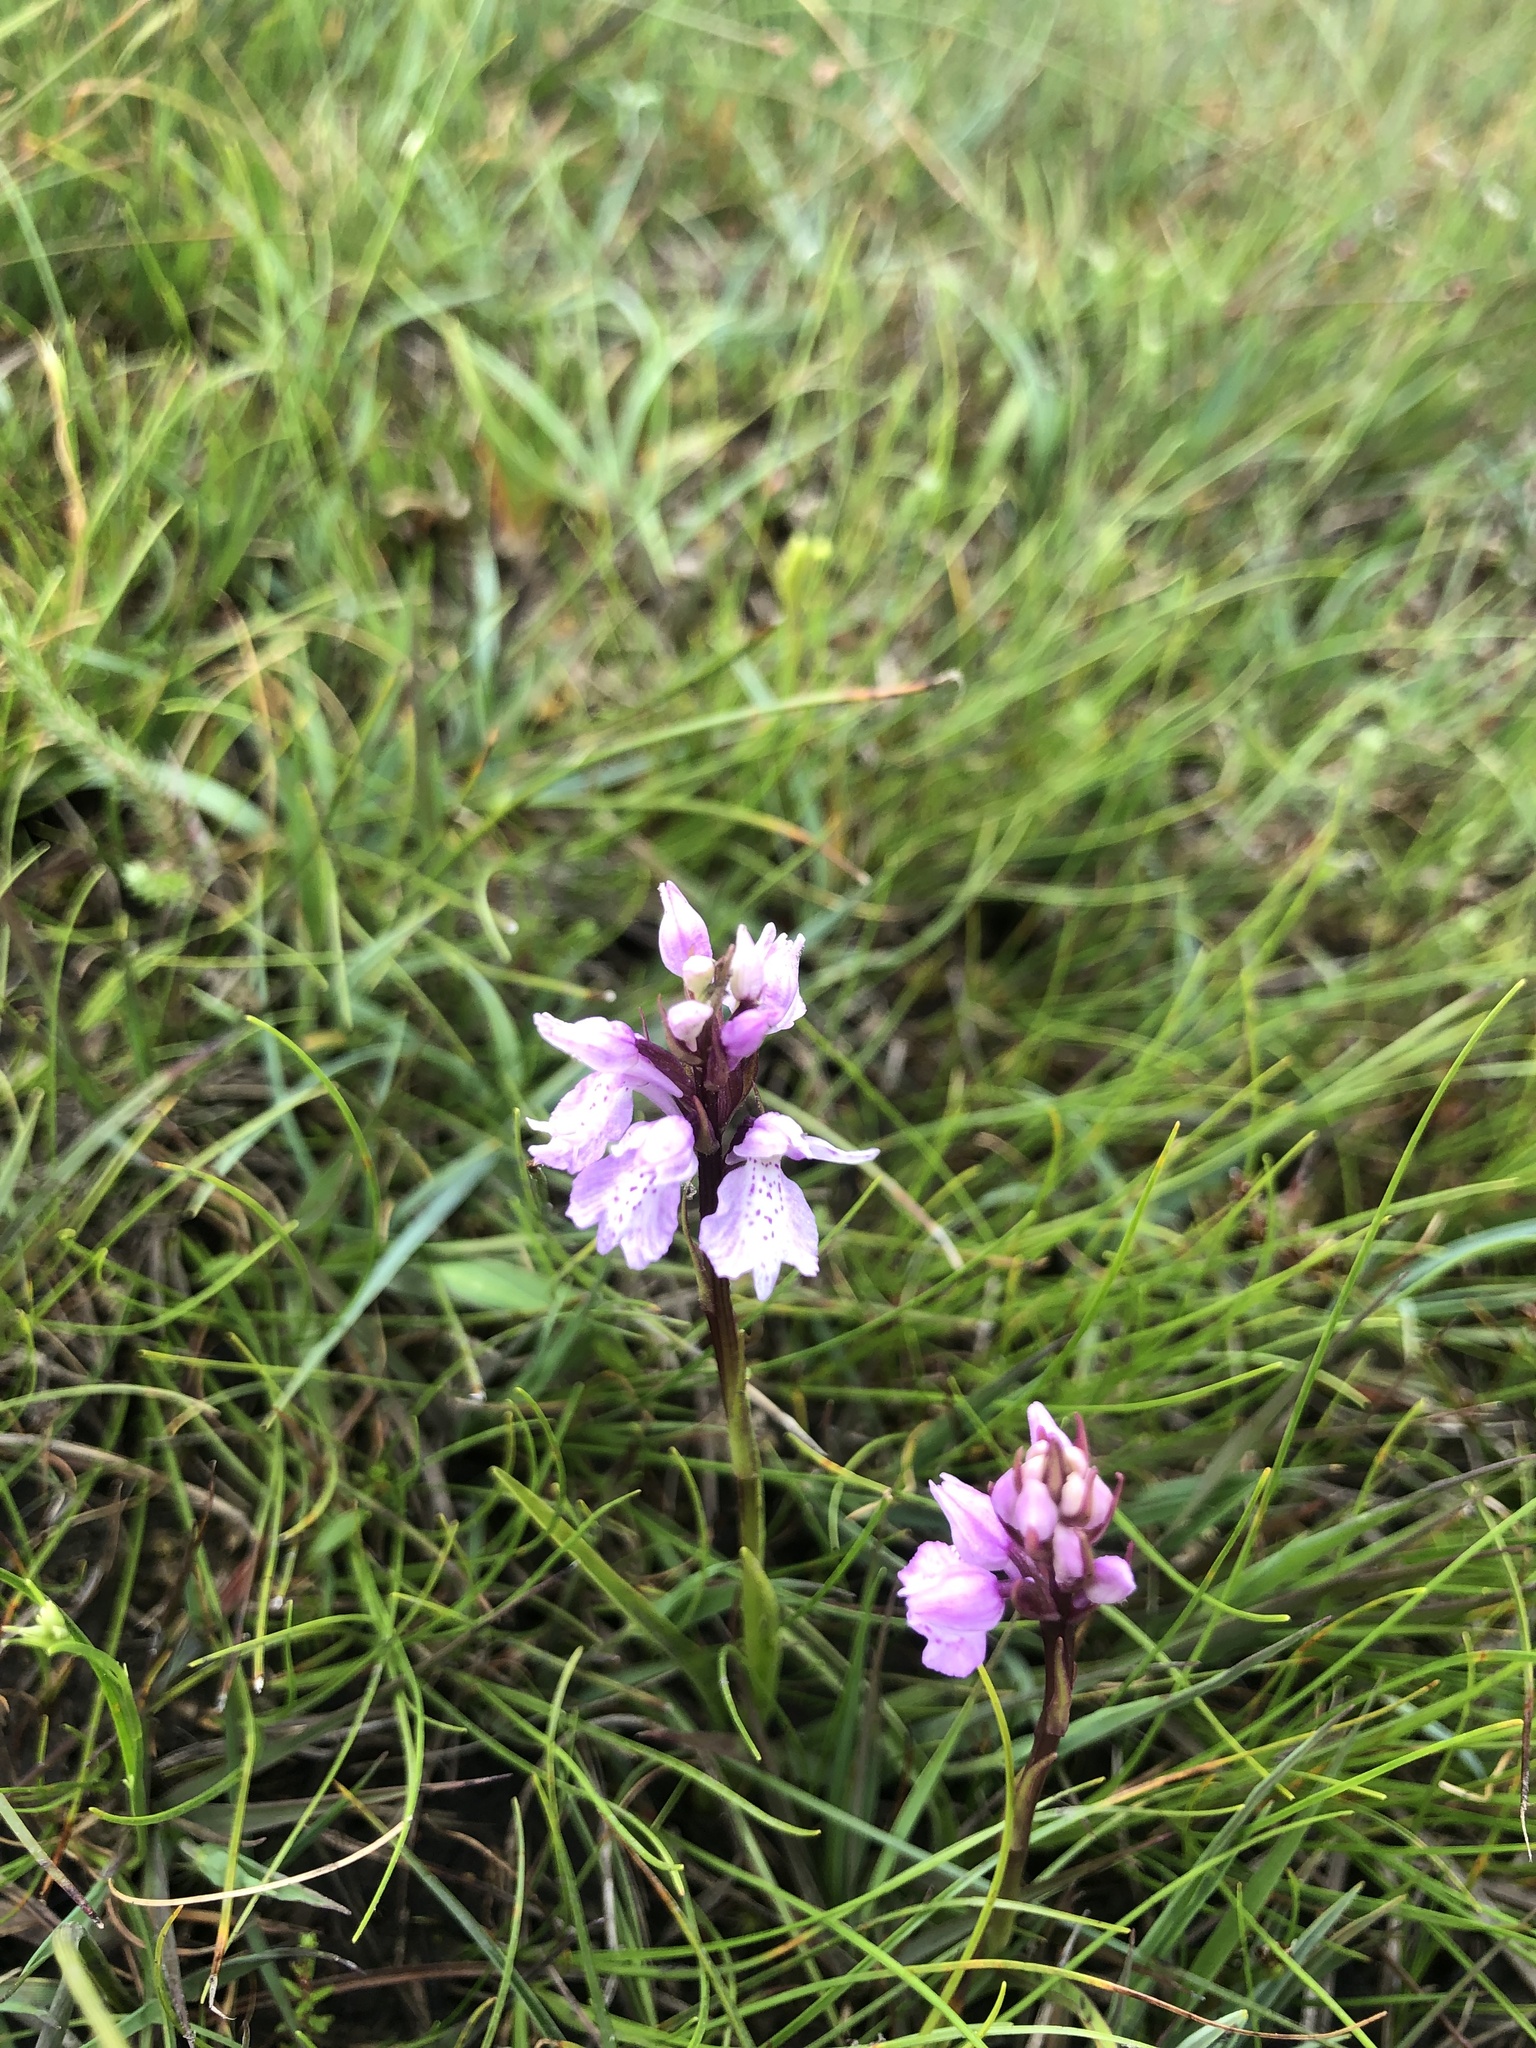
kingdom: Plantae
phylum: Tracheophyta
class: Liliopsida
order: Asparagales
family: Orchidaceae
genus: Dactylorhiza
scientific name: Dactylorhiza incarnata
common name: Early marsh-orchid
